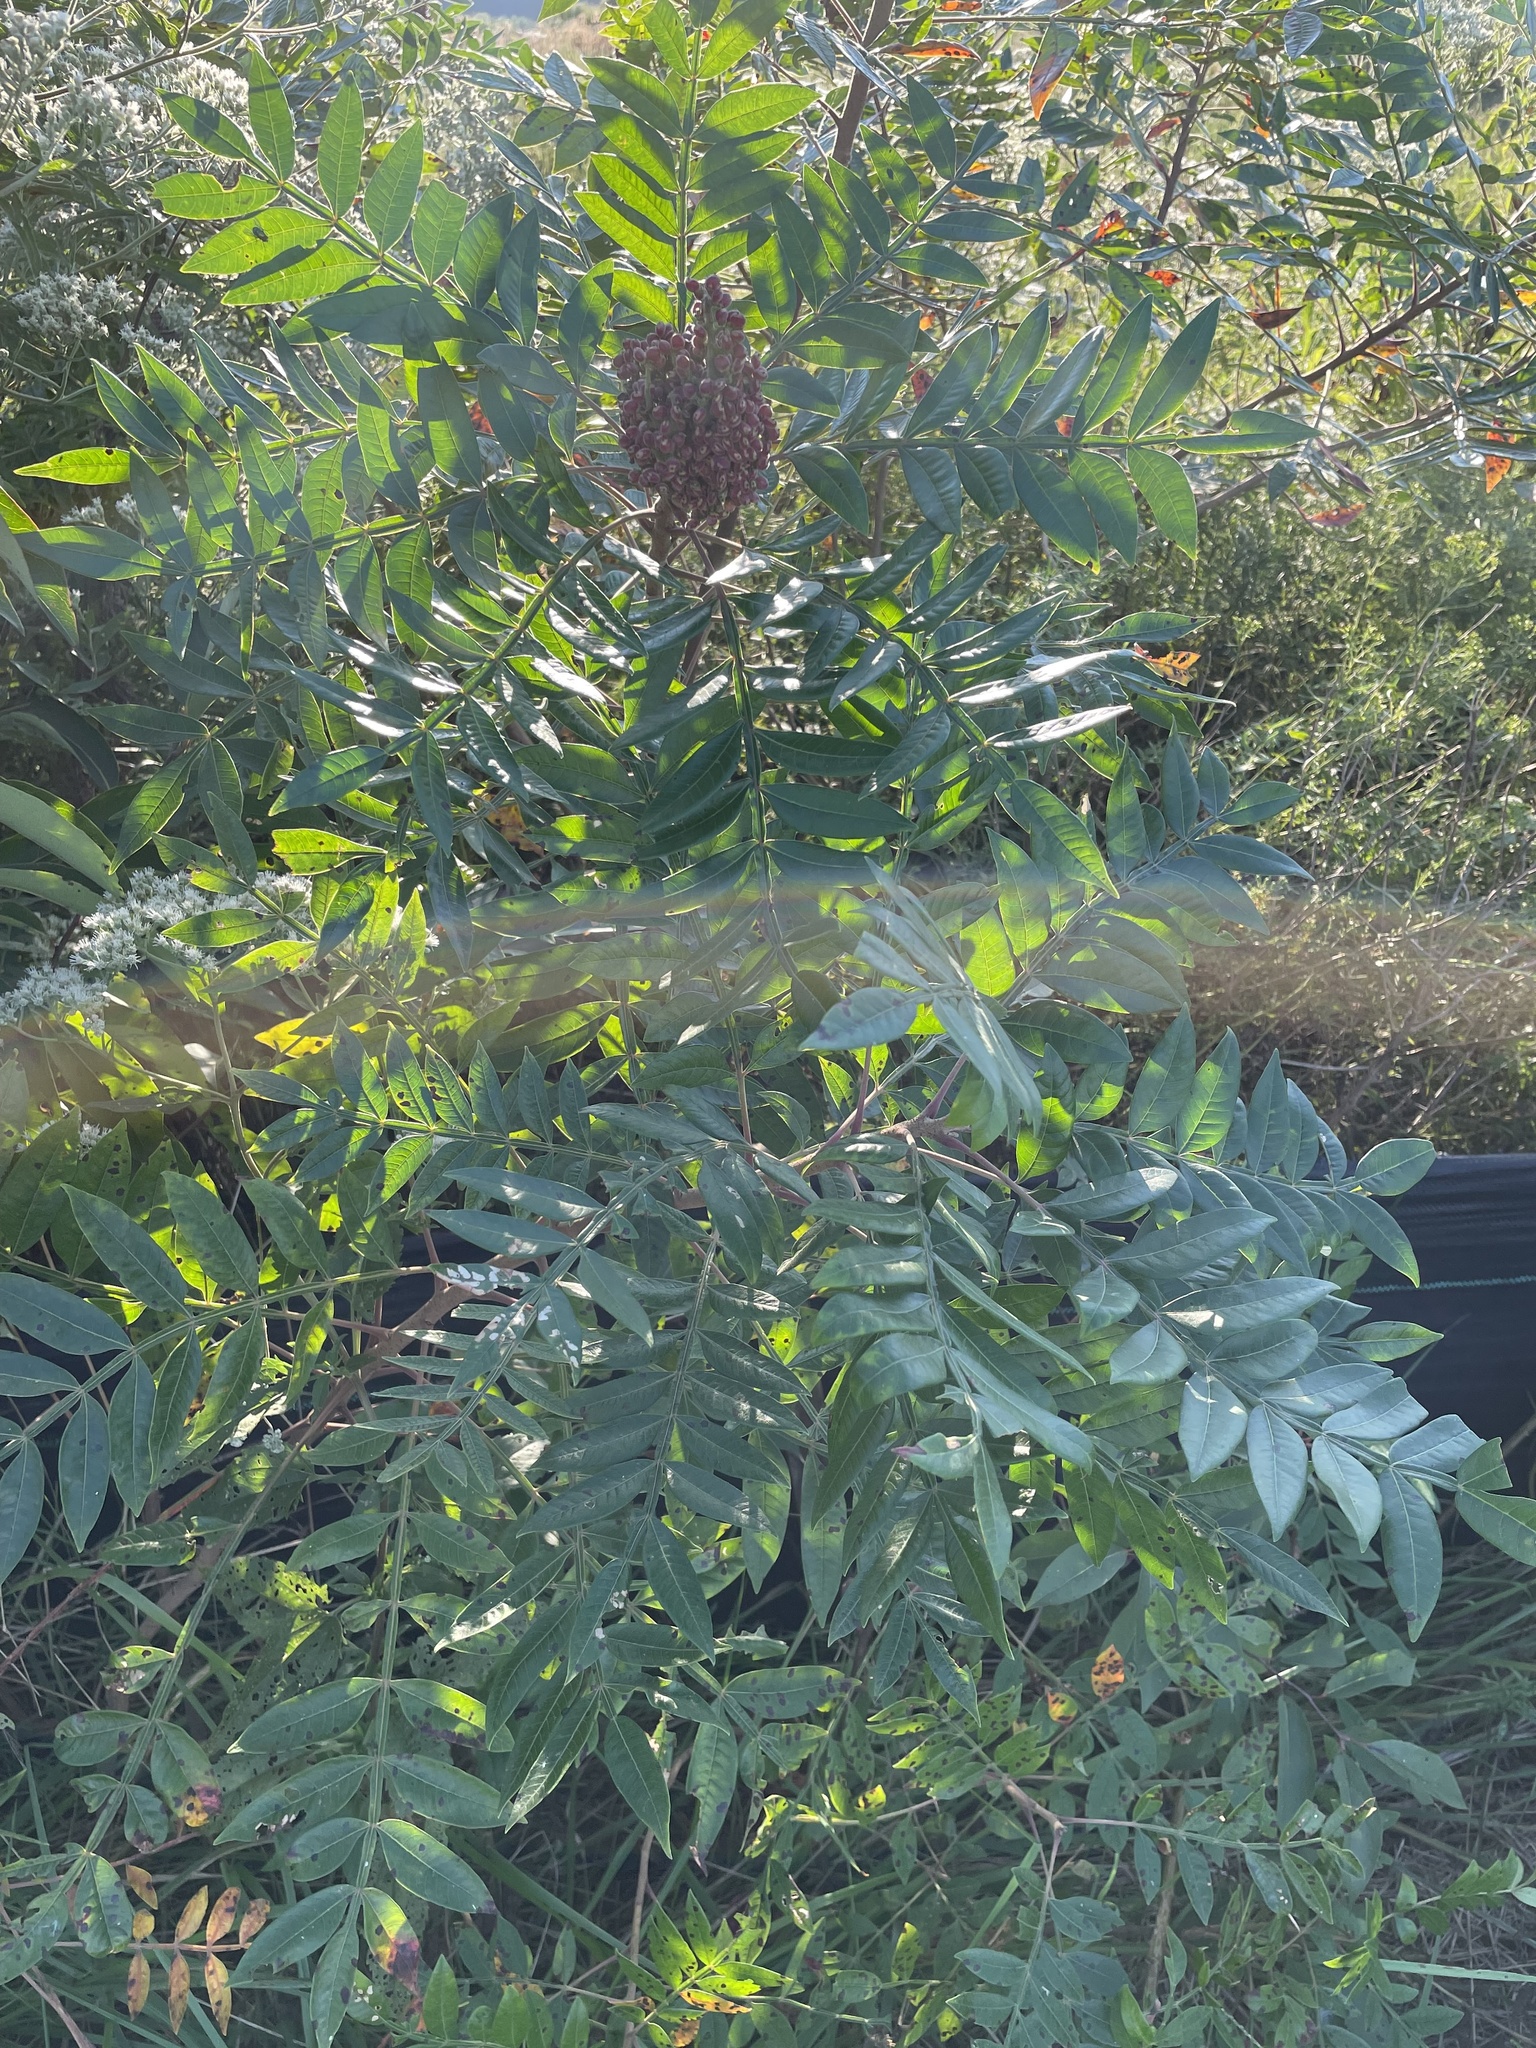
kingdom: Plantae
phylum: Tracheophyta
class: Magnoliopsida
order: Sapindales
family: Anacardiaceae
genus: Rhus
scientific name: Rhus copallina
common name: Shining sumac
